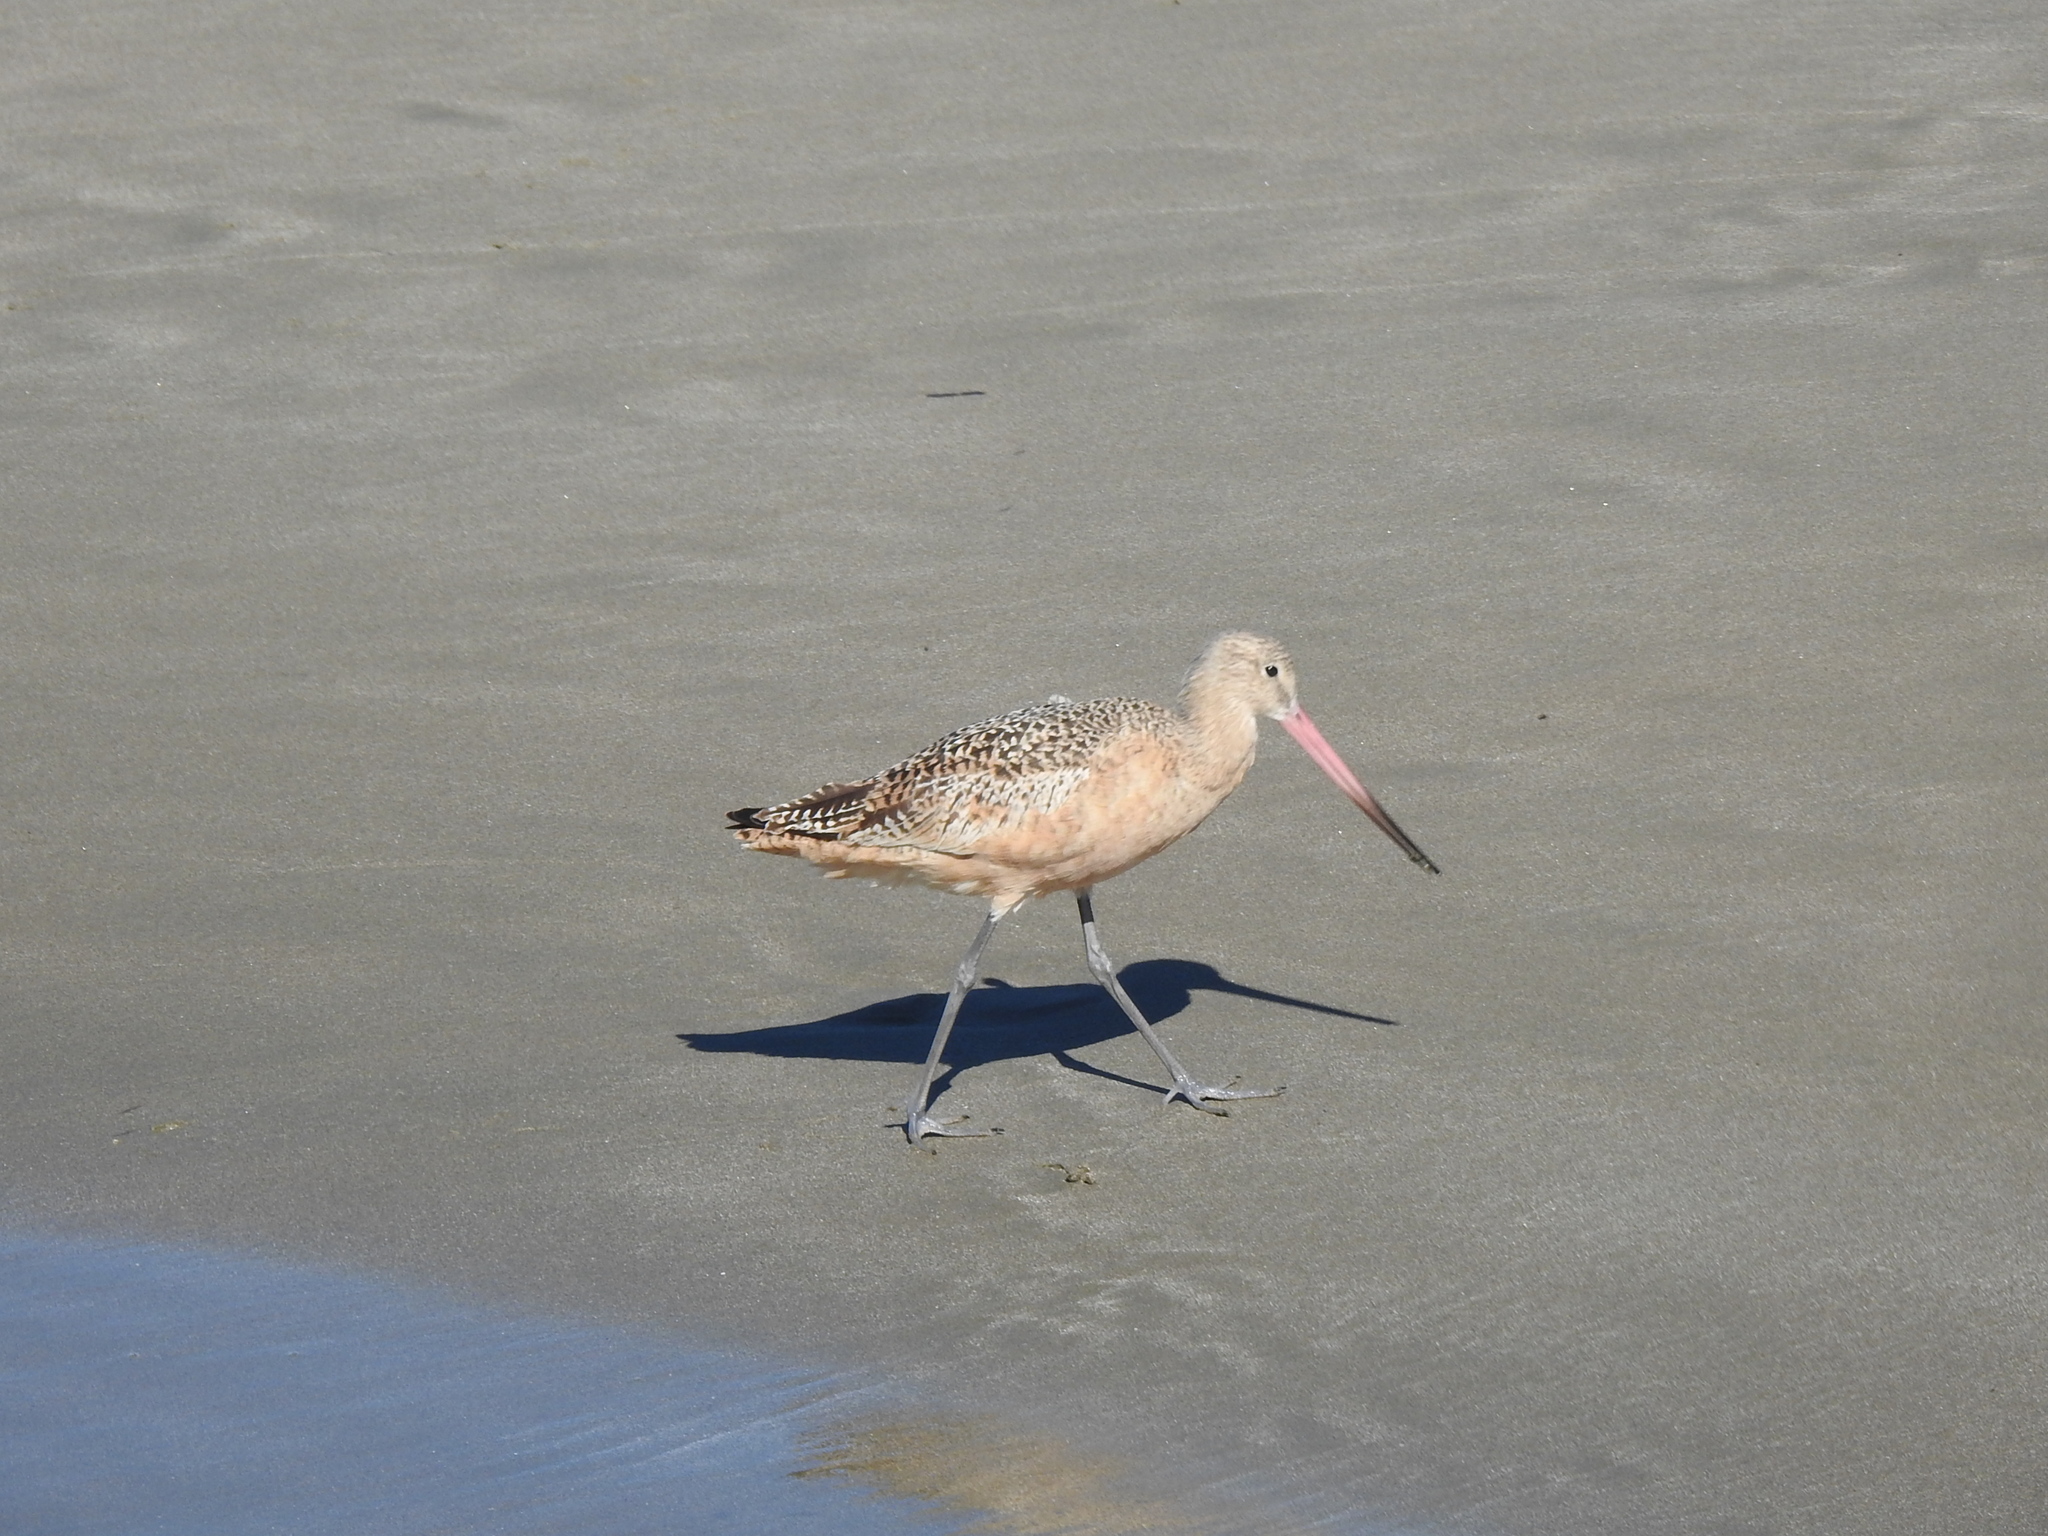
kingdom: Animalia
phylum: Chordata
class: Aves
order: Charadriiformes
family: Scolopacidae
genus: Limosa
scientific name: Limosa fedoa
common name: Marbled godwit
